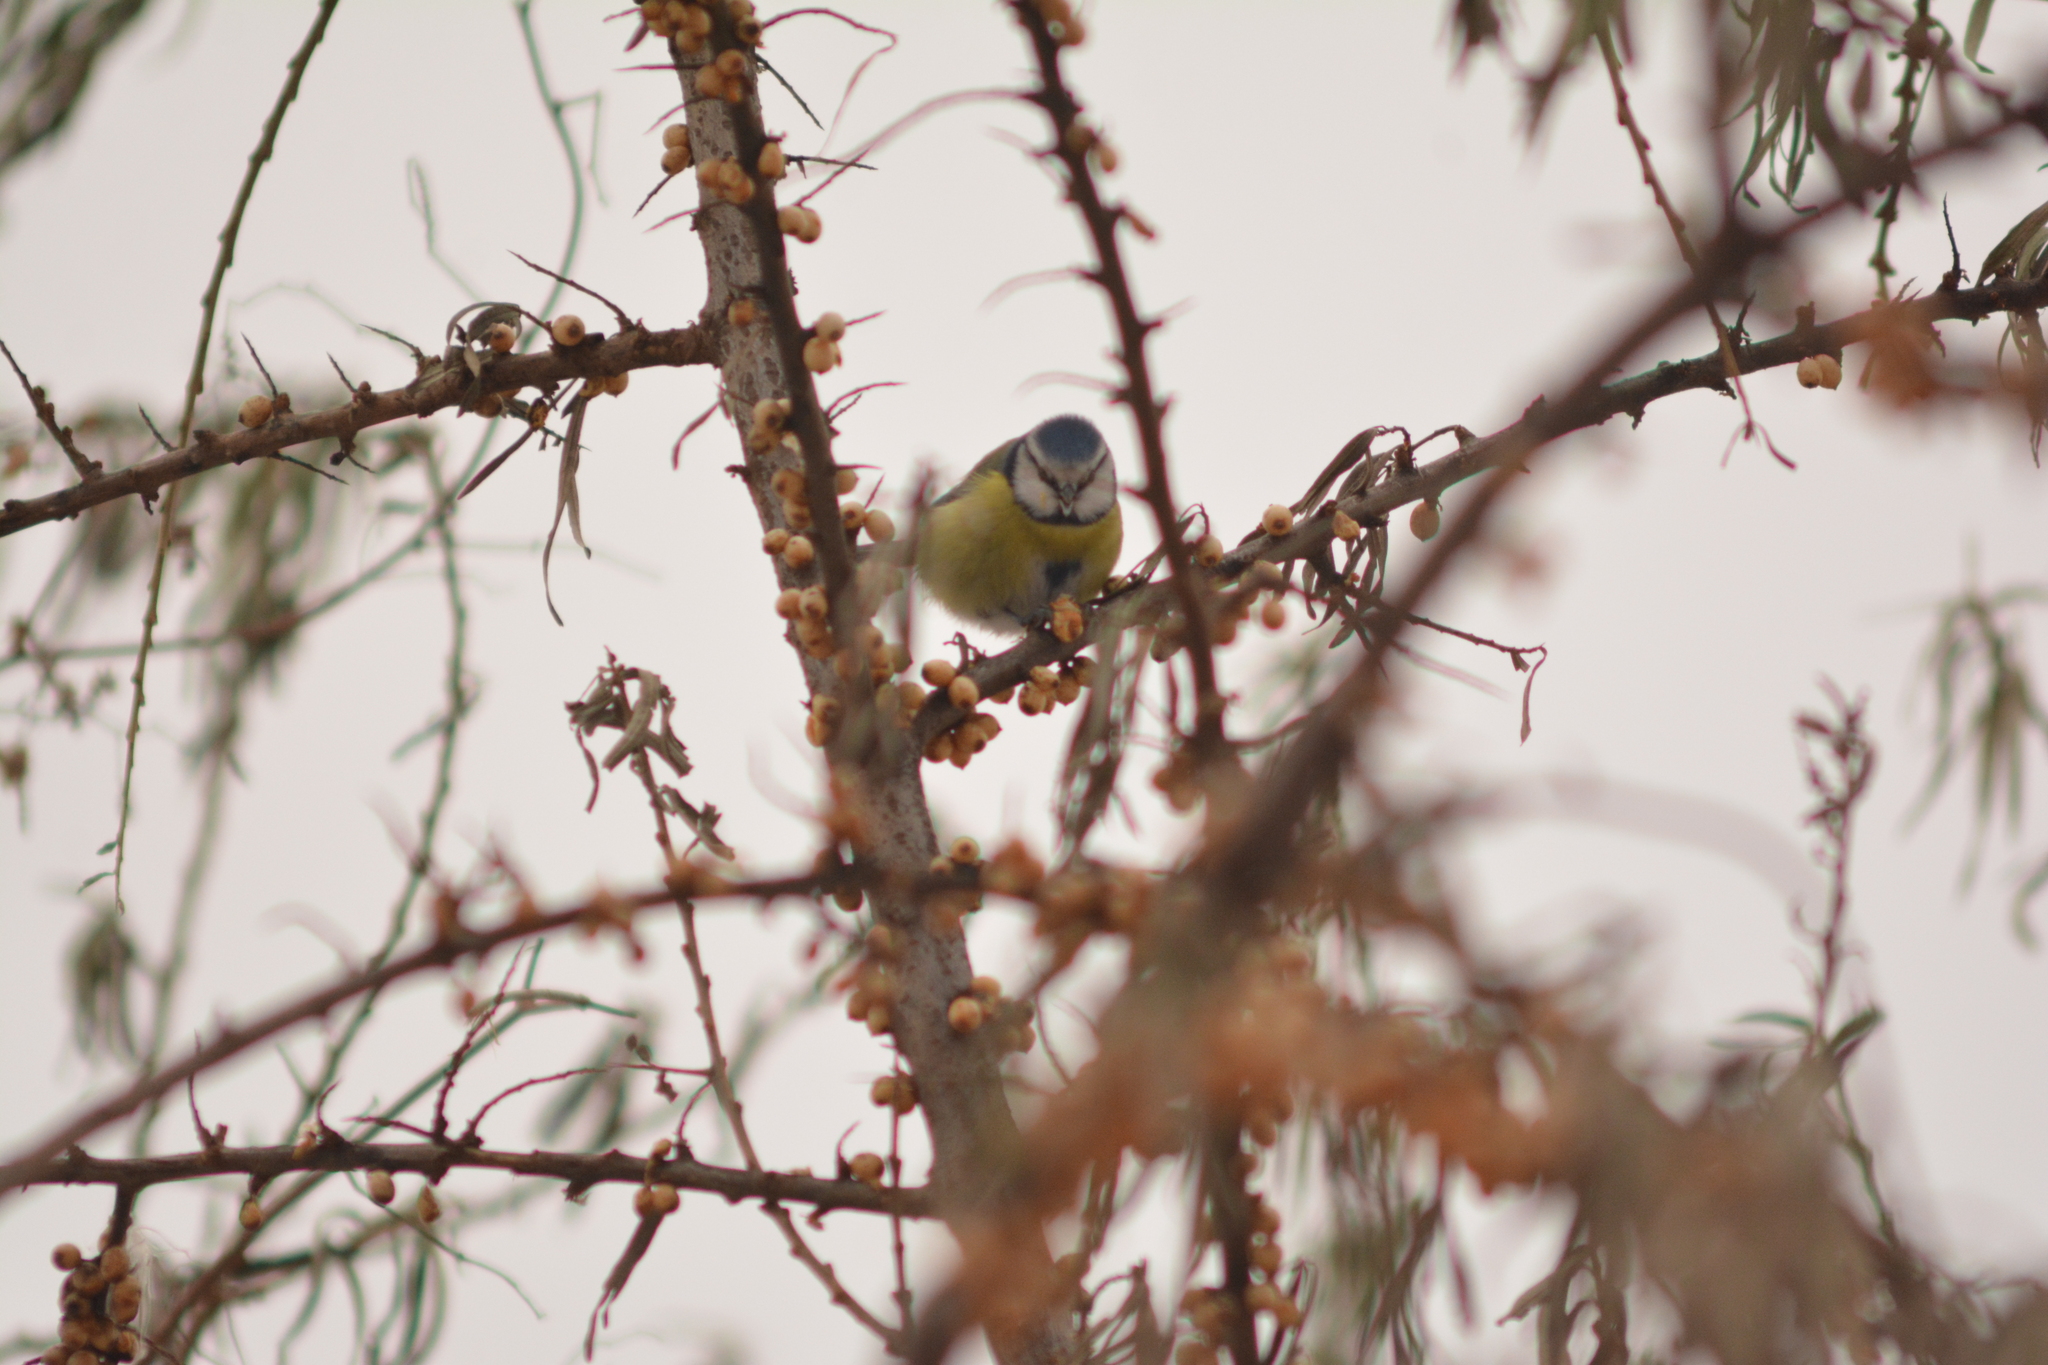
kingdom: Animalia
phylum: Chordata
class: Aves
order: Passeriformes
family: Paridae
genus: Cyanistes
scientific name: Cyanistes caeruleus
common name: Eurasian blue tit
